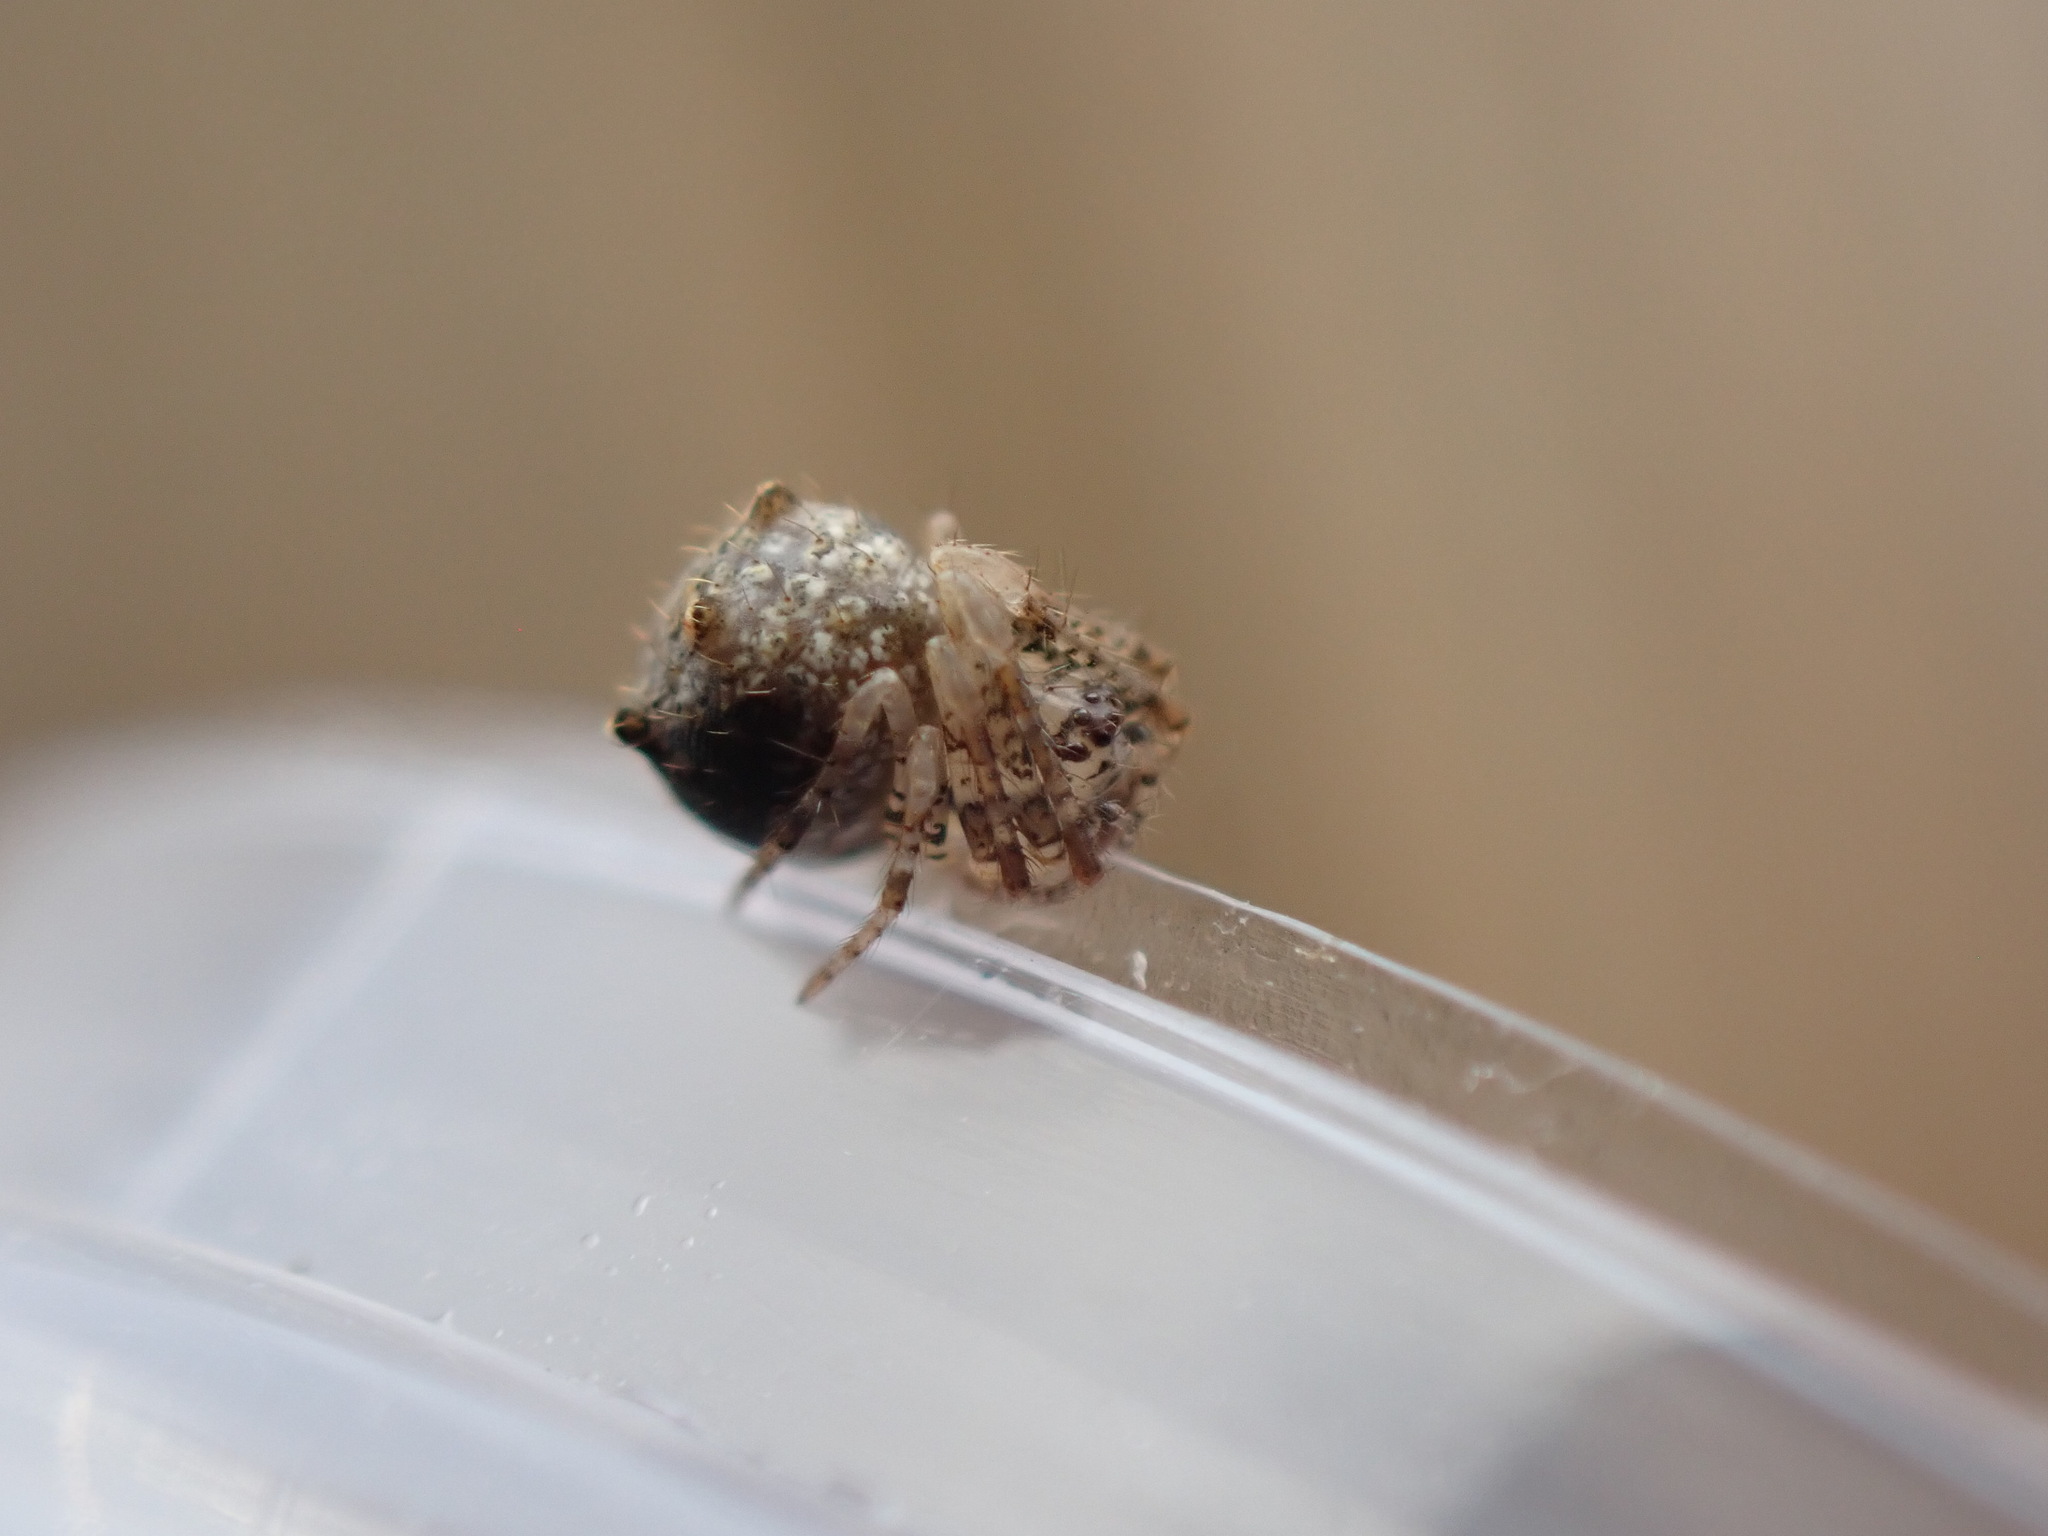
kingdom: Animalia
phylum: Arthropoda
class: Arachnida
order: Araneae
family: Mimetidae
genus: Ero
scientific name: Ero aphana
